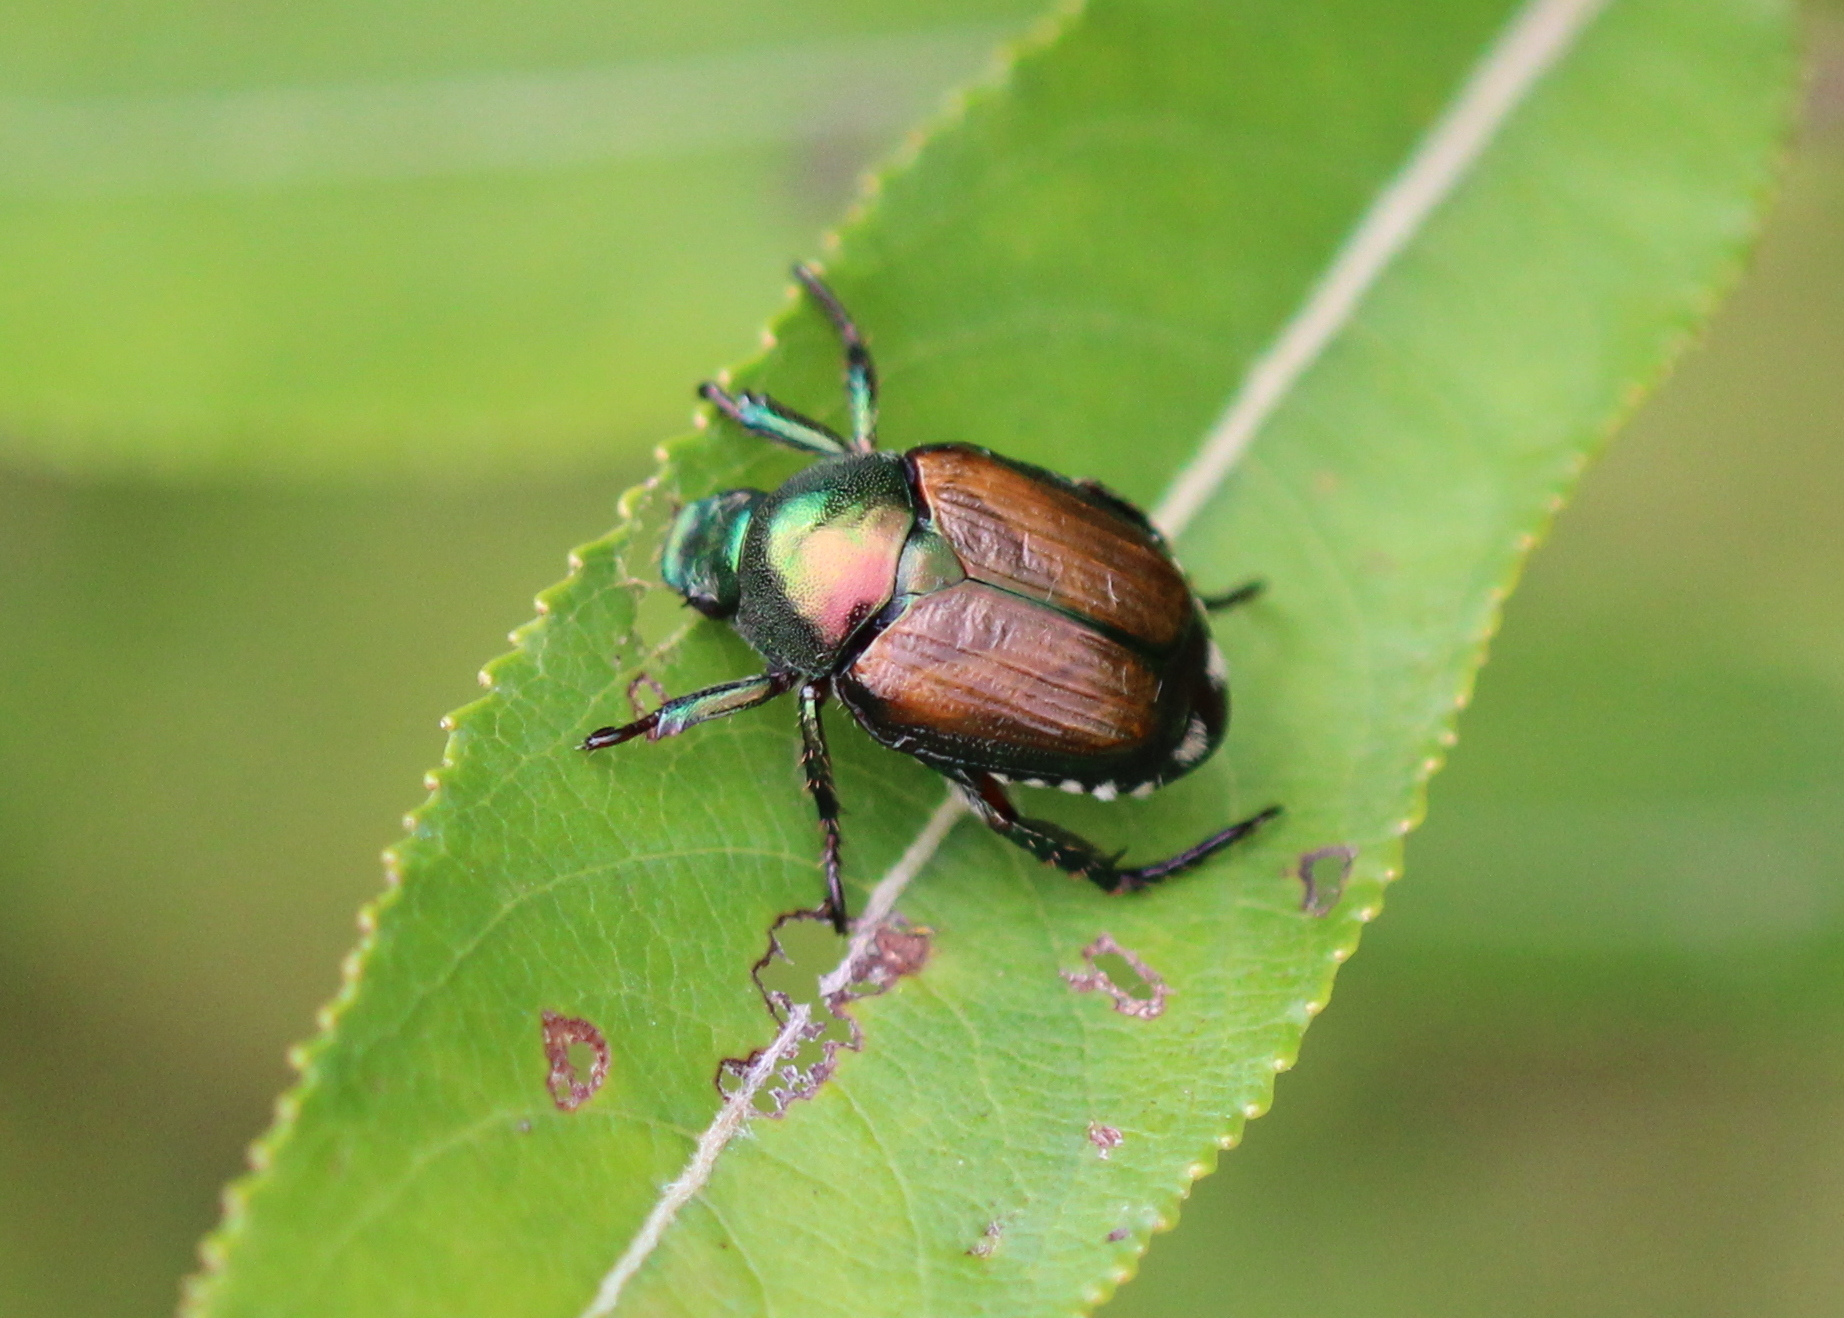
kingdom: Animalia
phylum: Arthropoda
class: Insecta
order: Coleoptera
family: Scarabaeidae
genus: Popillia
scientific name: Popillia japonica
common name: Japanese beetle
